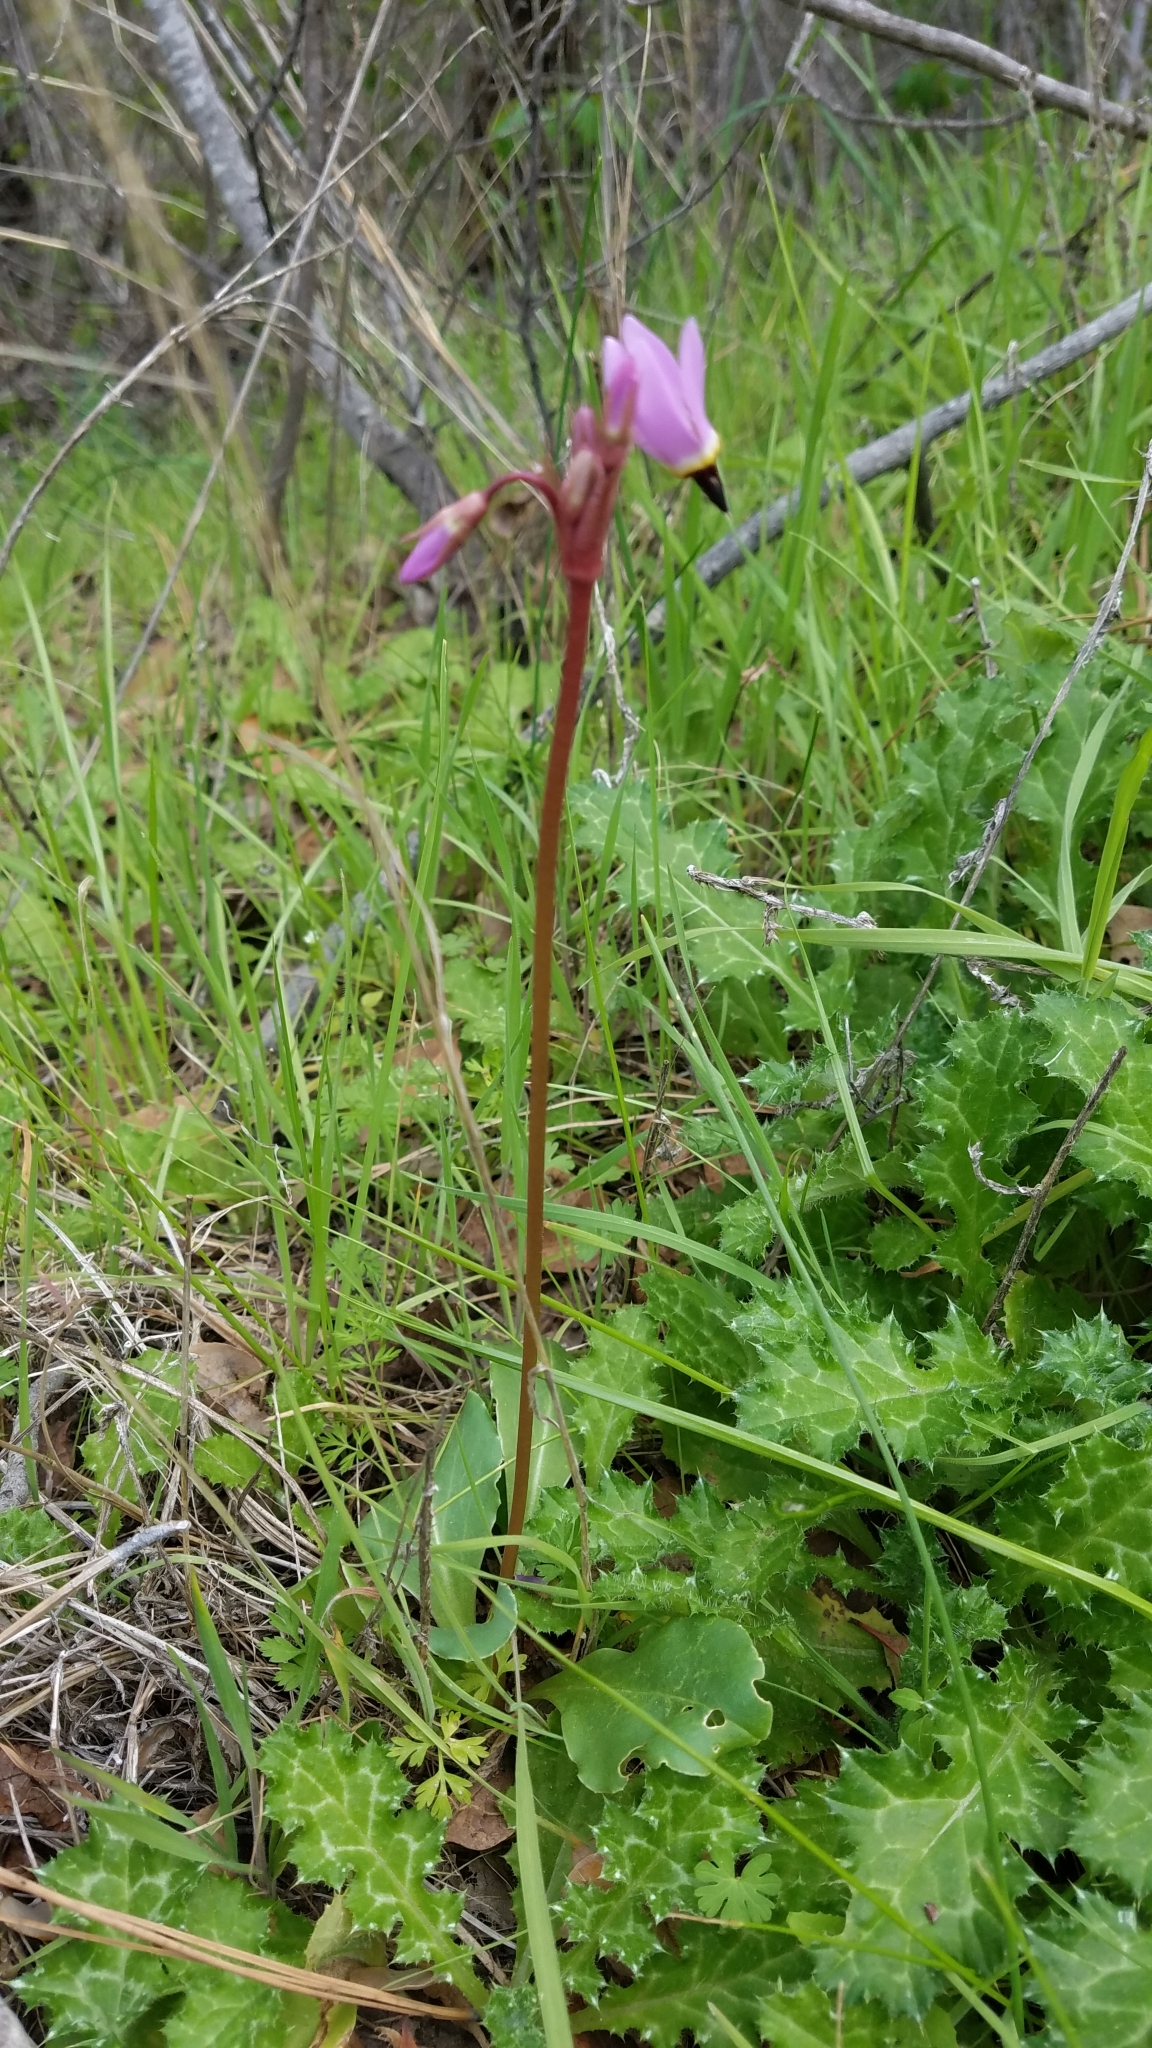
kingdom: Plantae
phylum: Tracheophyta
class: Magnoliopsida
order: Ericales
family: Primulaceae
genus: Dodecatheon
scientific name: Dodecatheon hendersonii
